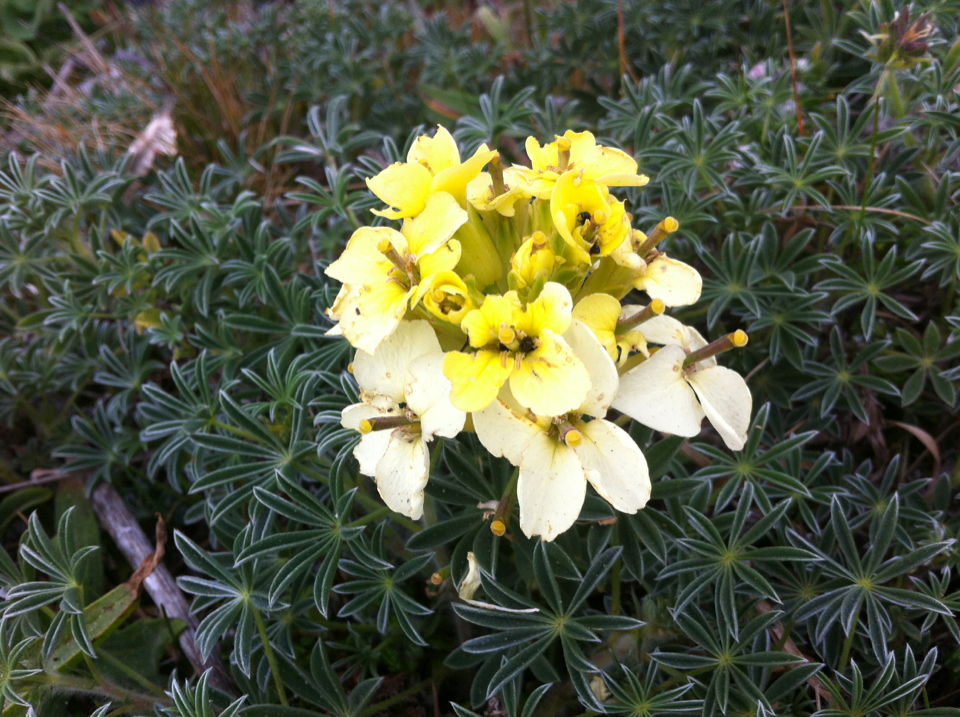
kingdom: Plantae
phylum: Tracheophyta
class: Magnoliopsida
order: Brassicales
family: Brassicaceae
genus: Erysimum
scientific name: Erysimum concinnum
